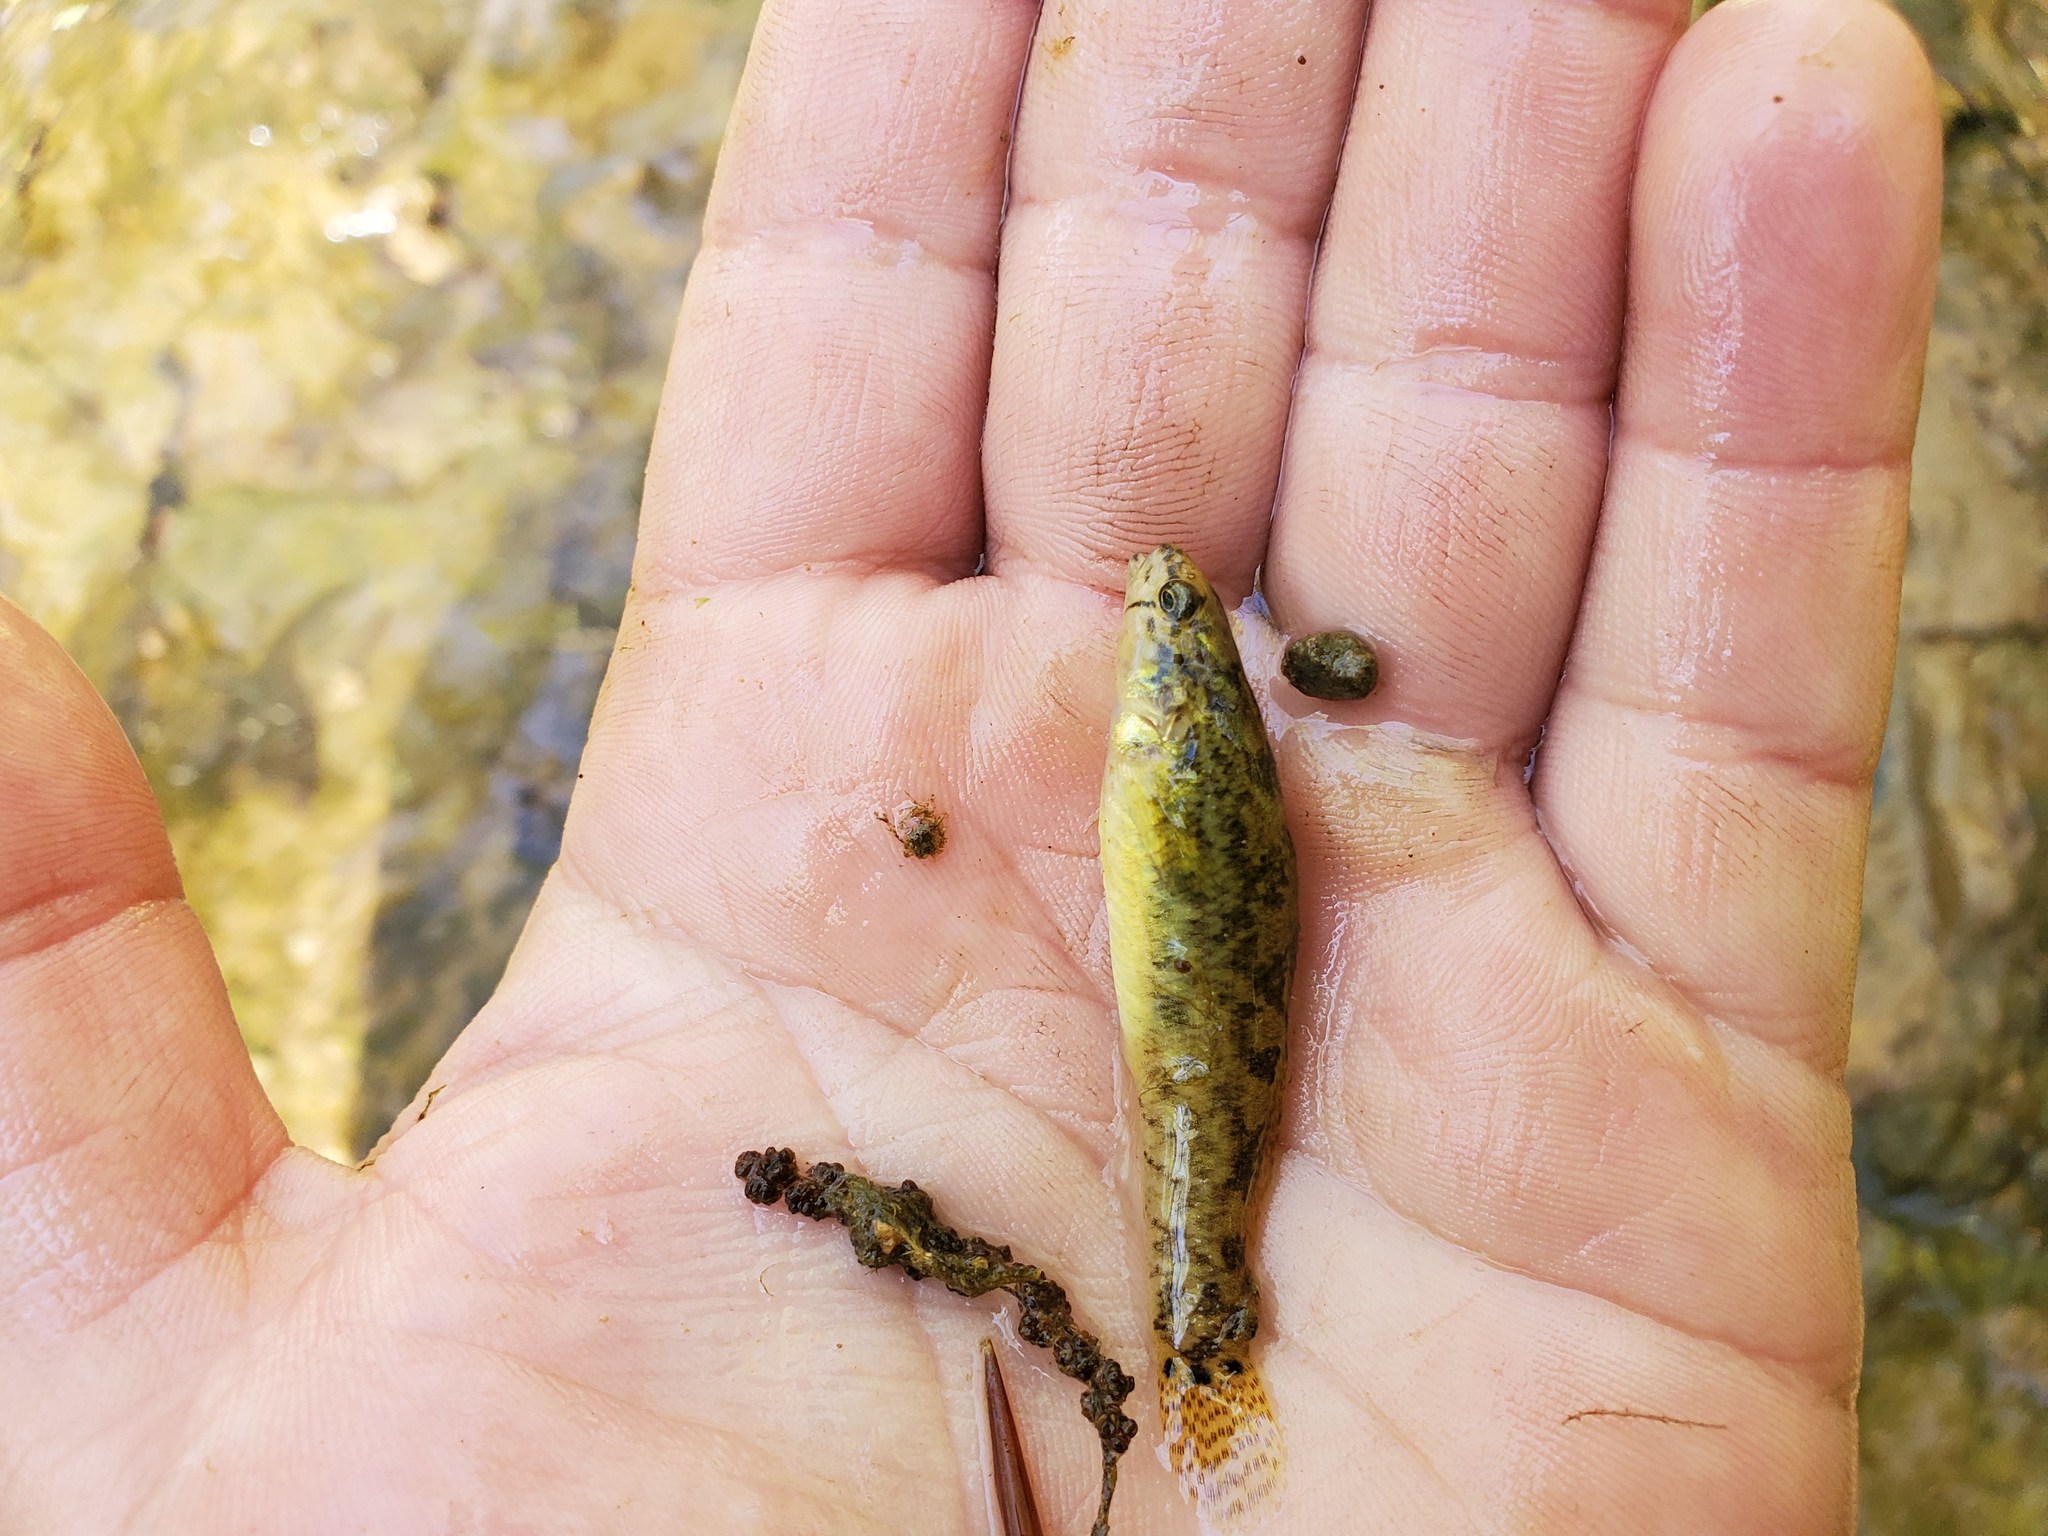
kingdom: Animalia
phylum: Chordata
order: Perciformes
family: Percidae
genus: Etheostoma
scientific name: Etheostoma crossopterum
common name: Fringed darter
